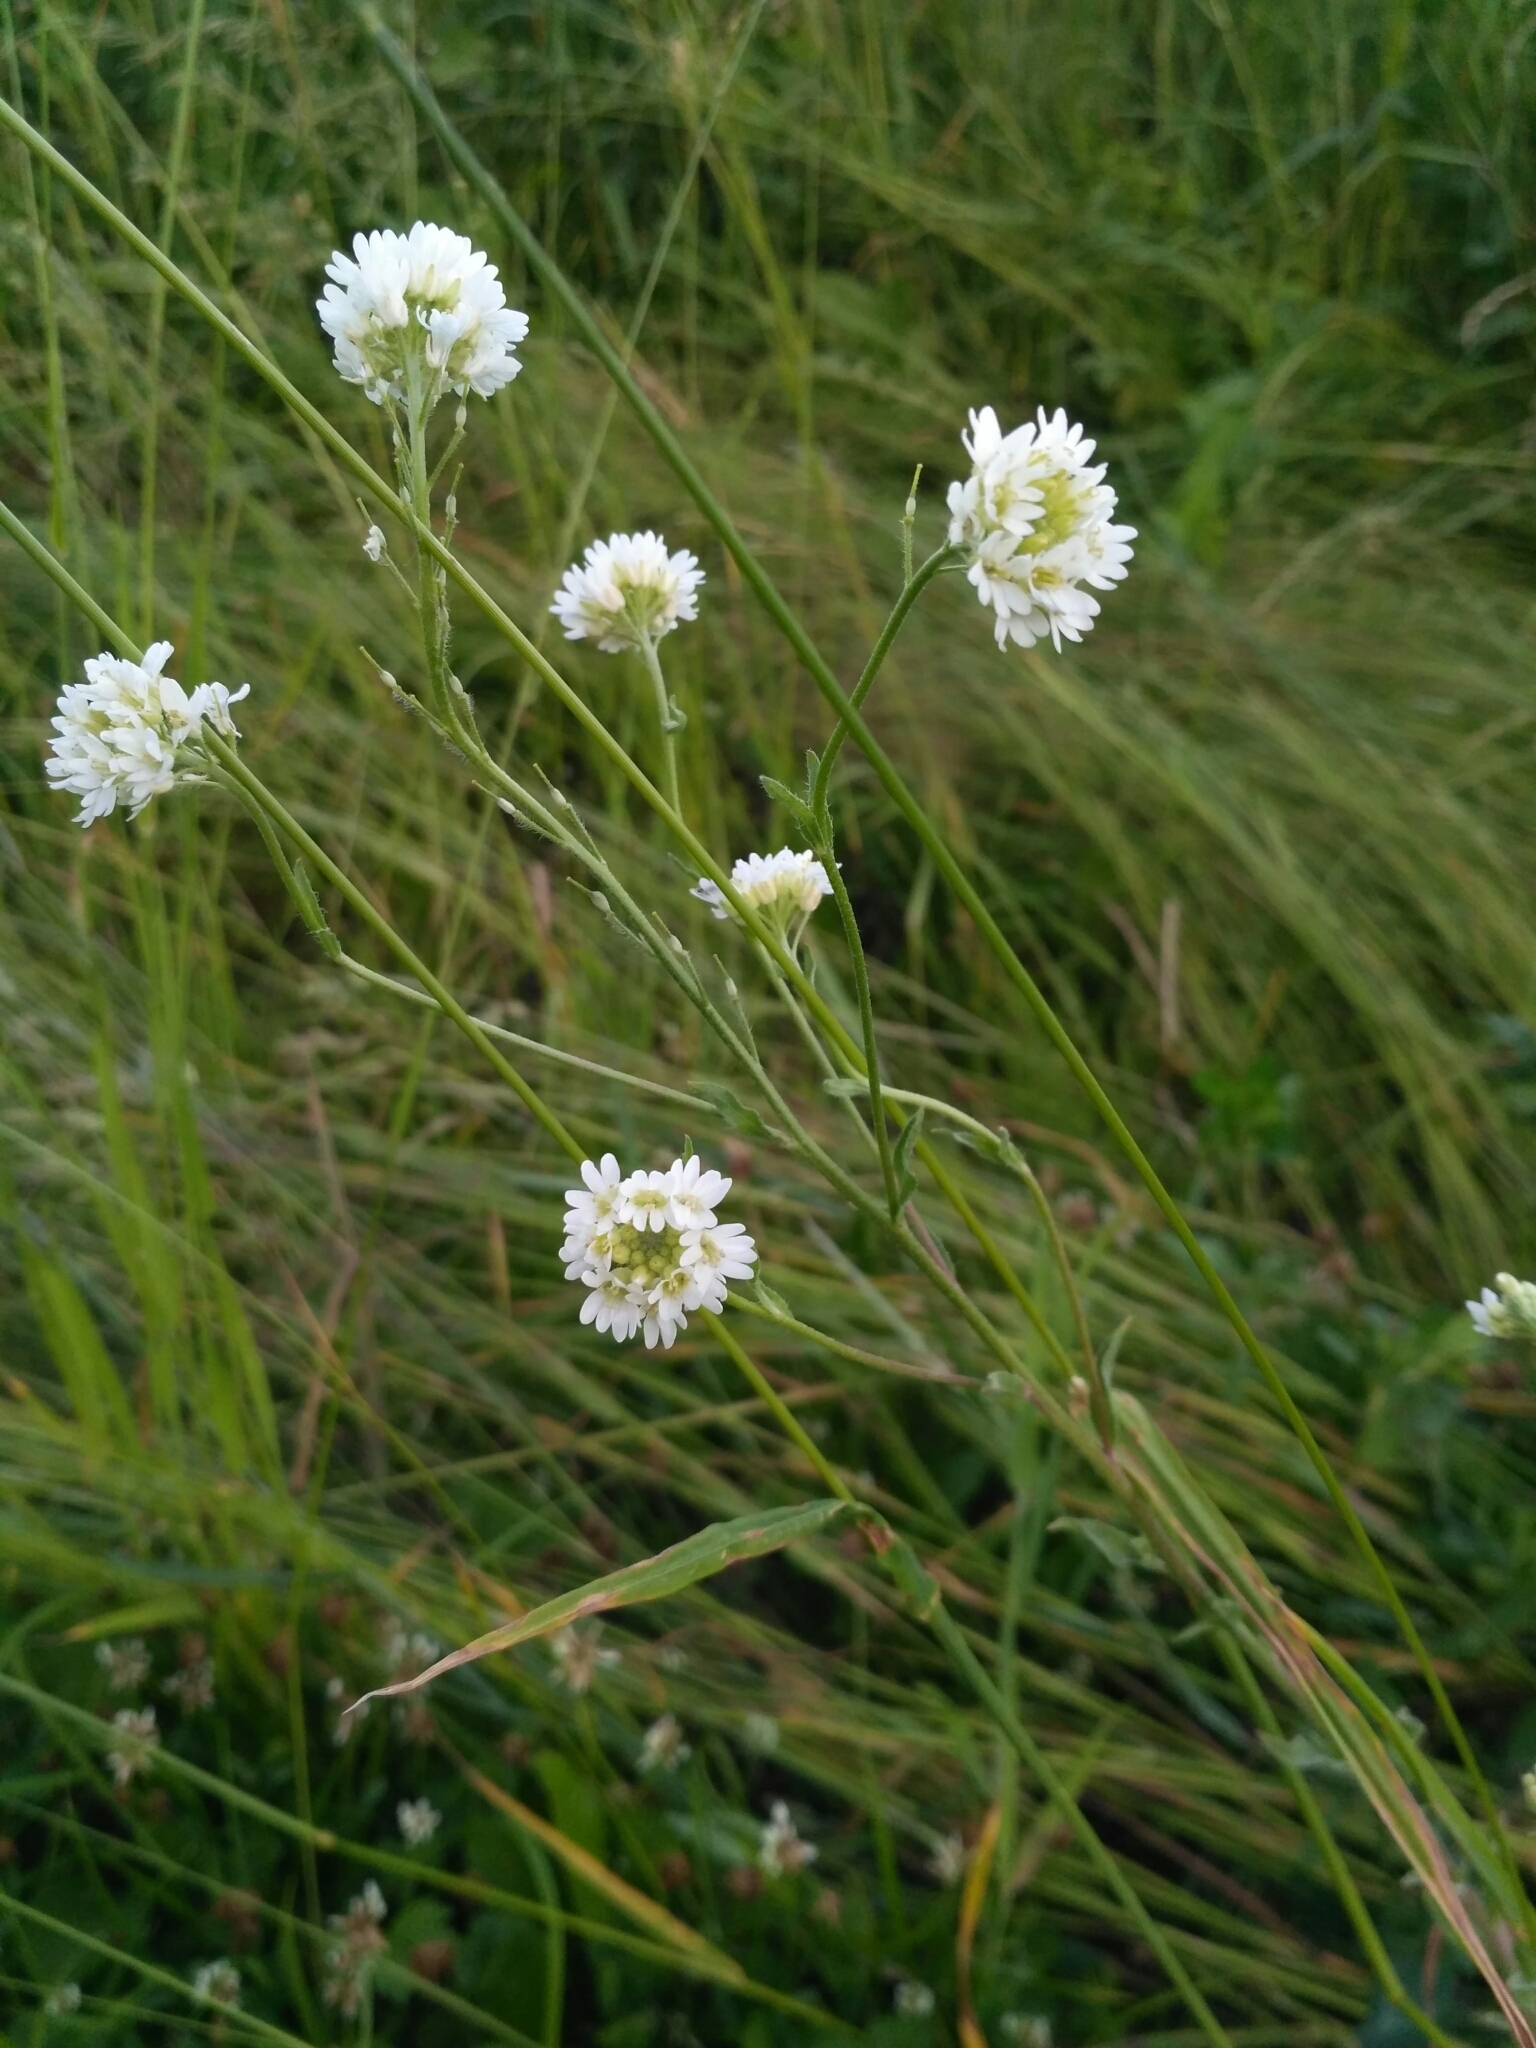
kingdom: Plantae
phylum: Tracheophyta
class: Magnoliopsida
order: Brassicales
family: Brassicaceae
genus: Berteroa
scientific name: Berteroa incana
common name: Hoary alison
